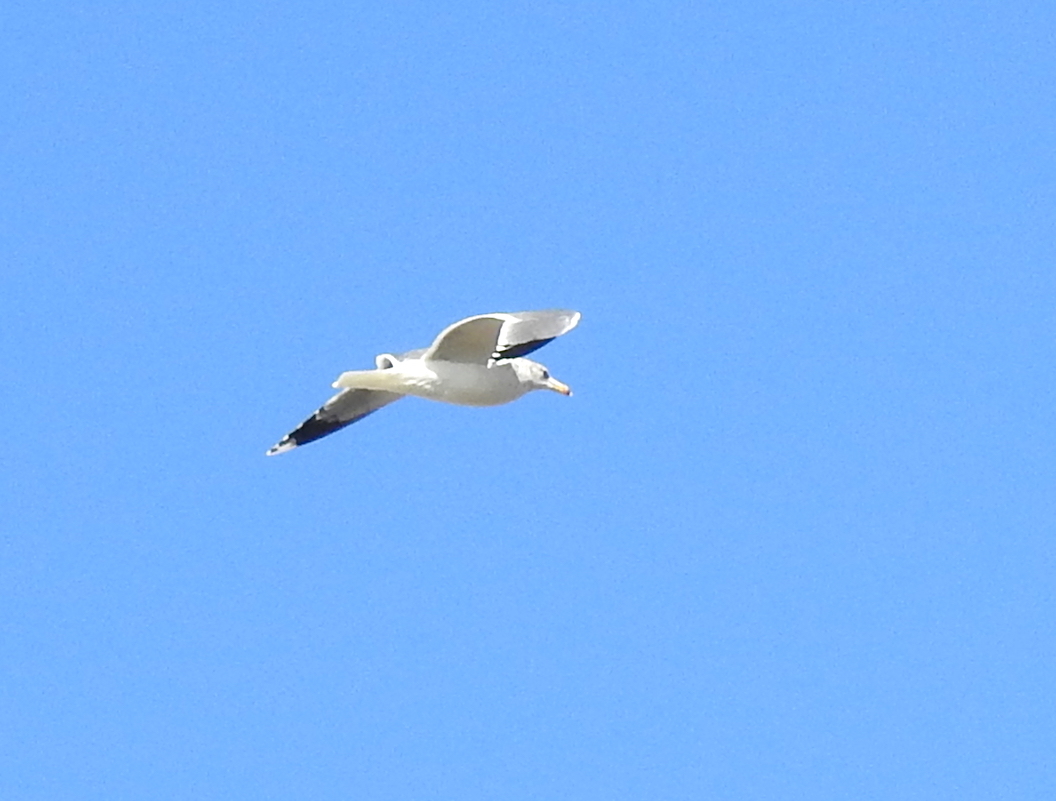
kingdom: Animalia
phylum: Chordata
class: Aves
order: Charadriiformes
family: Laridae
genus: Larus
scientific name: Larus californicus
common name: California gull
